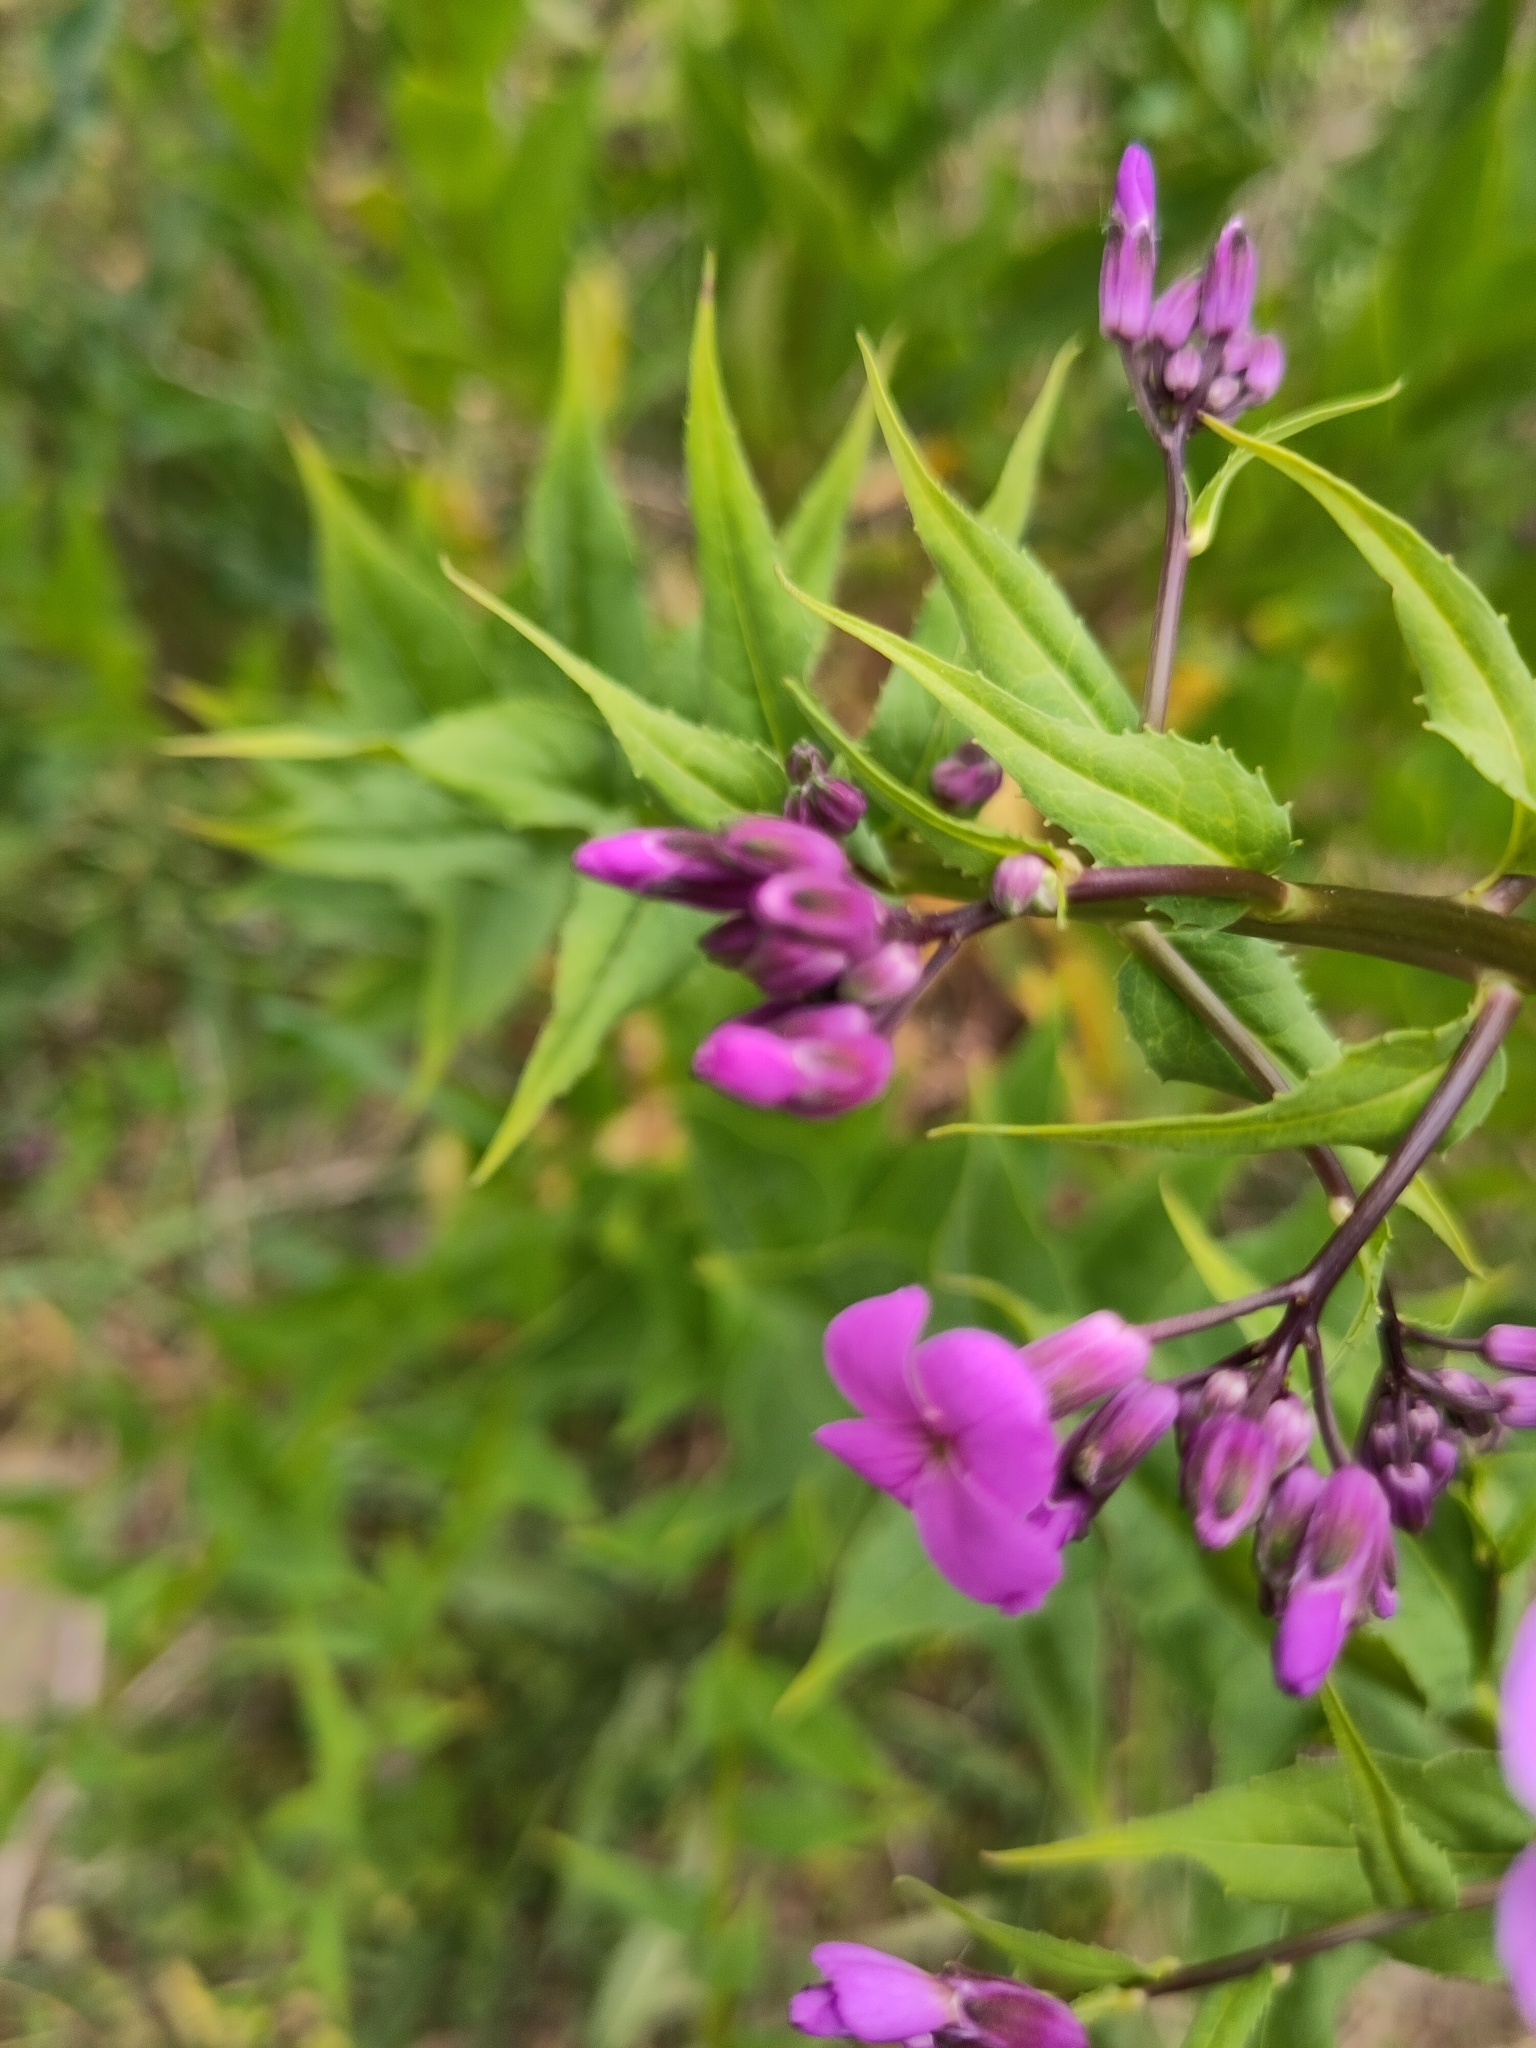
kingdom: Plantae
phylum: Tracheophyta
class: Magnoliopsida
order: Brassicales
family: Brassicaceae
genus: Hesperis
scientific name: Hesperis matronalis
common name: Dame's-violet
